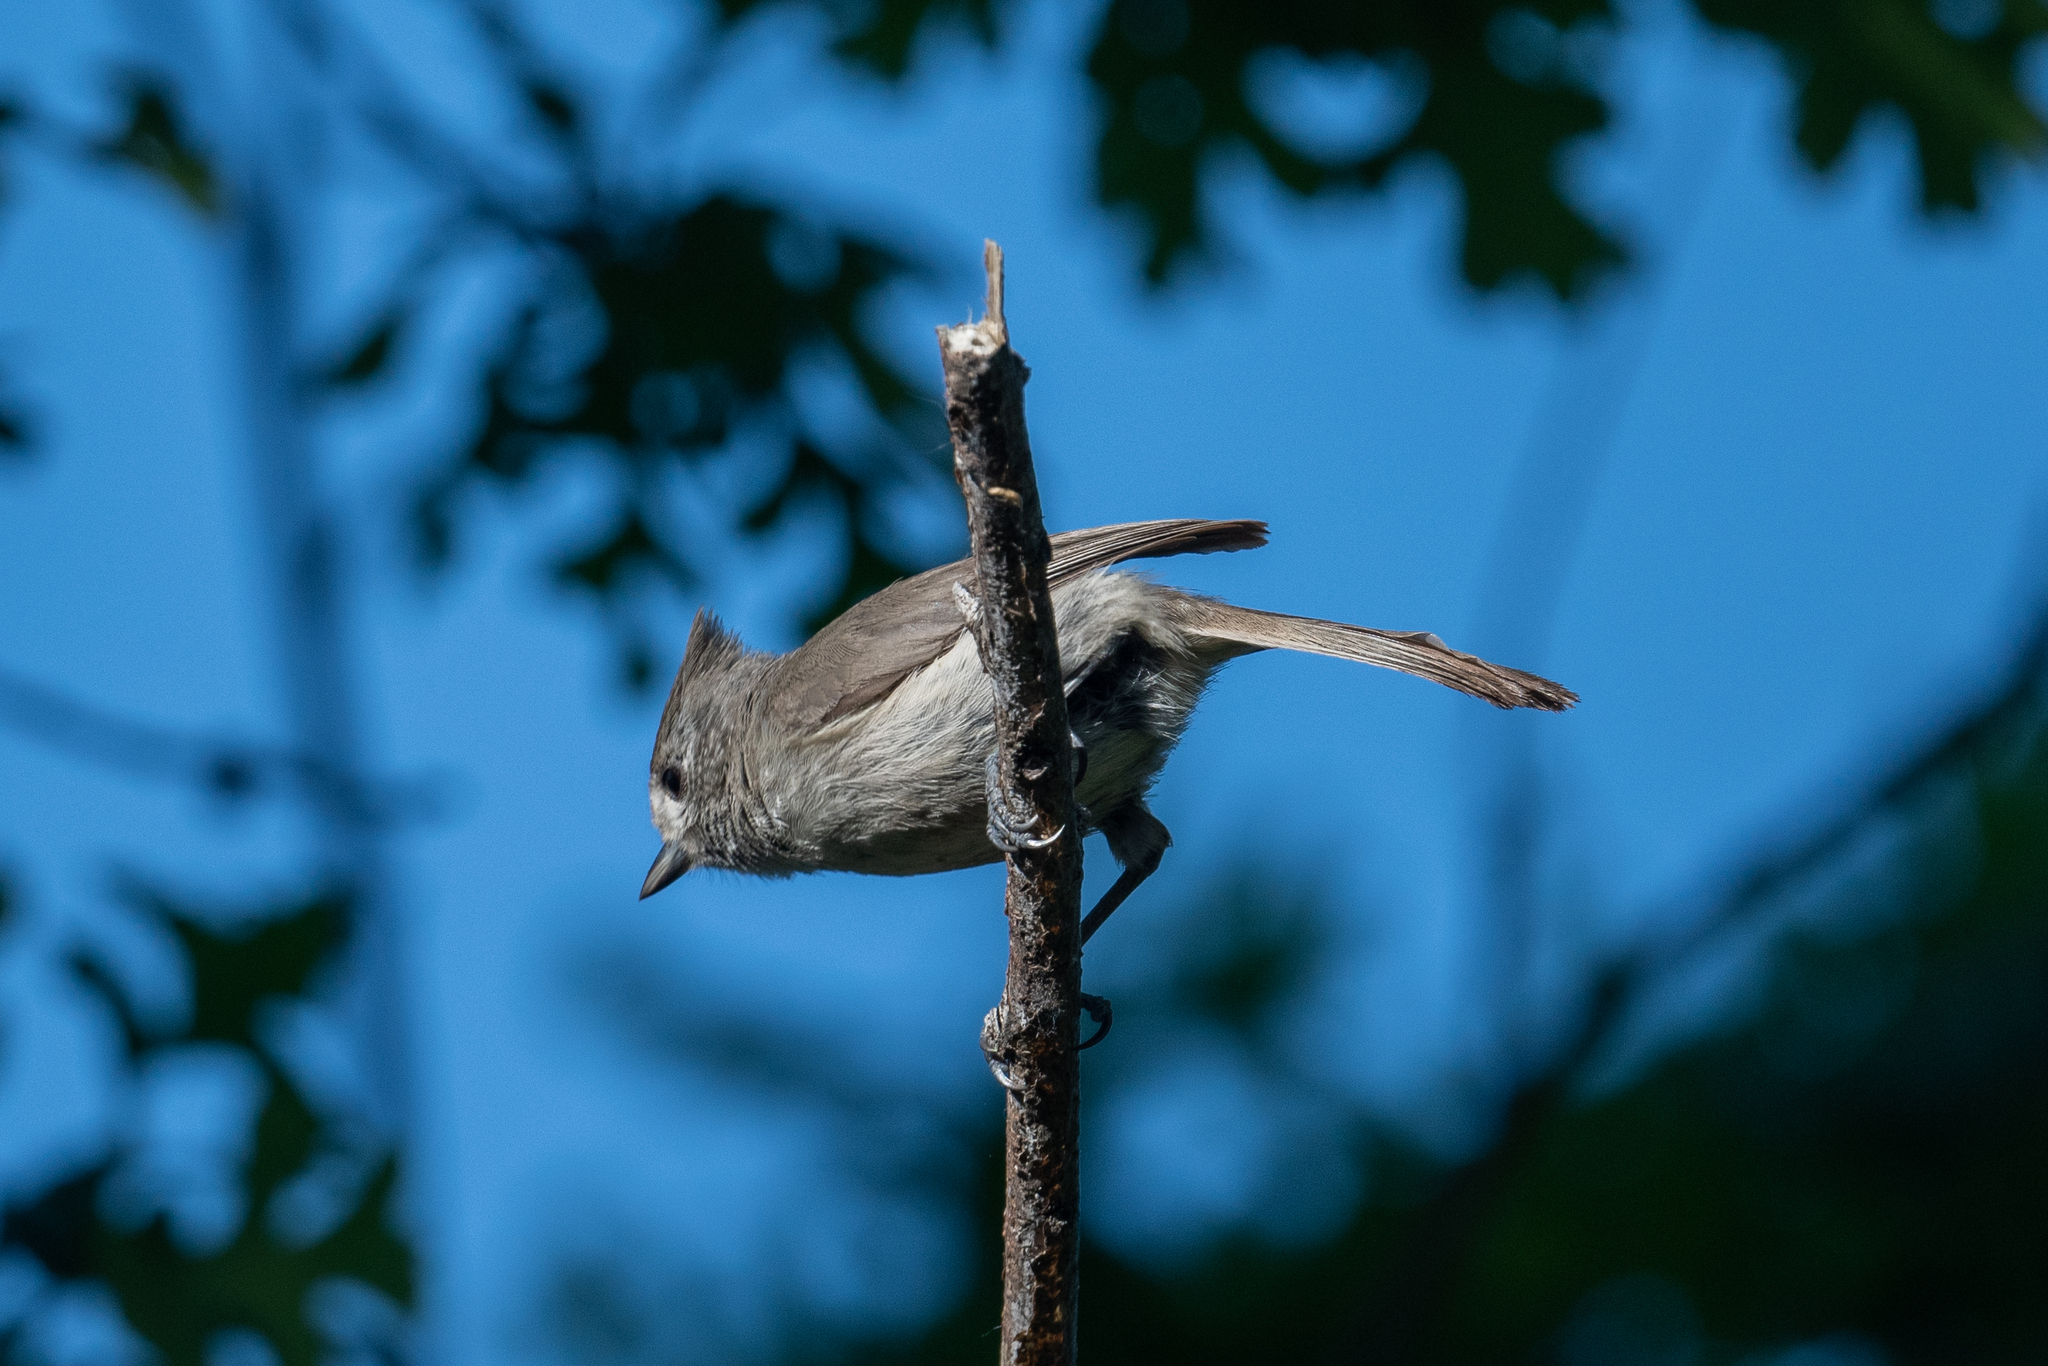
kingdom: Animalia
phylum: Chordata
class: Aves
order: Passeriformes
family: Paridae
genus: Baeolophus
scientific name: Baeolophus inornatus
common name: Oak titmouse
